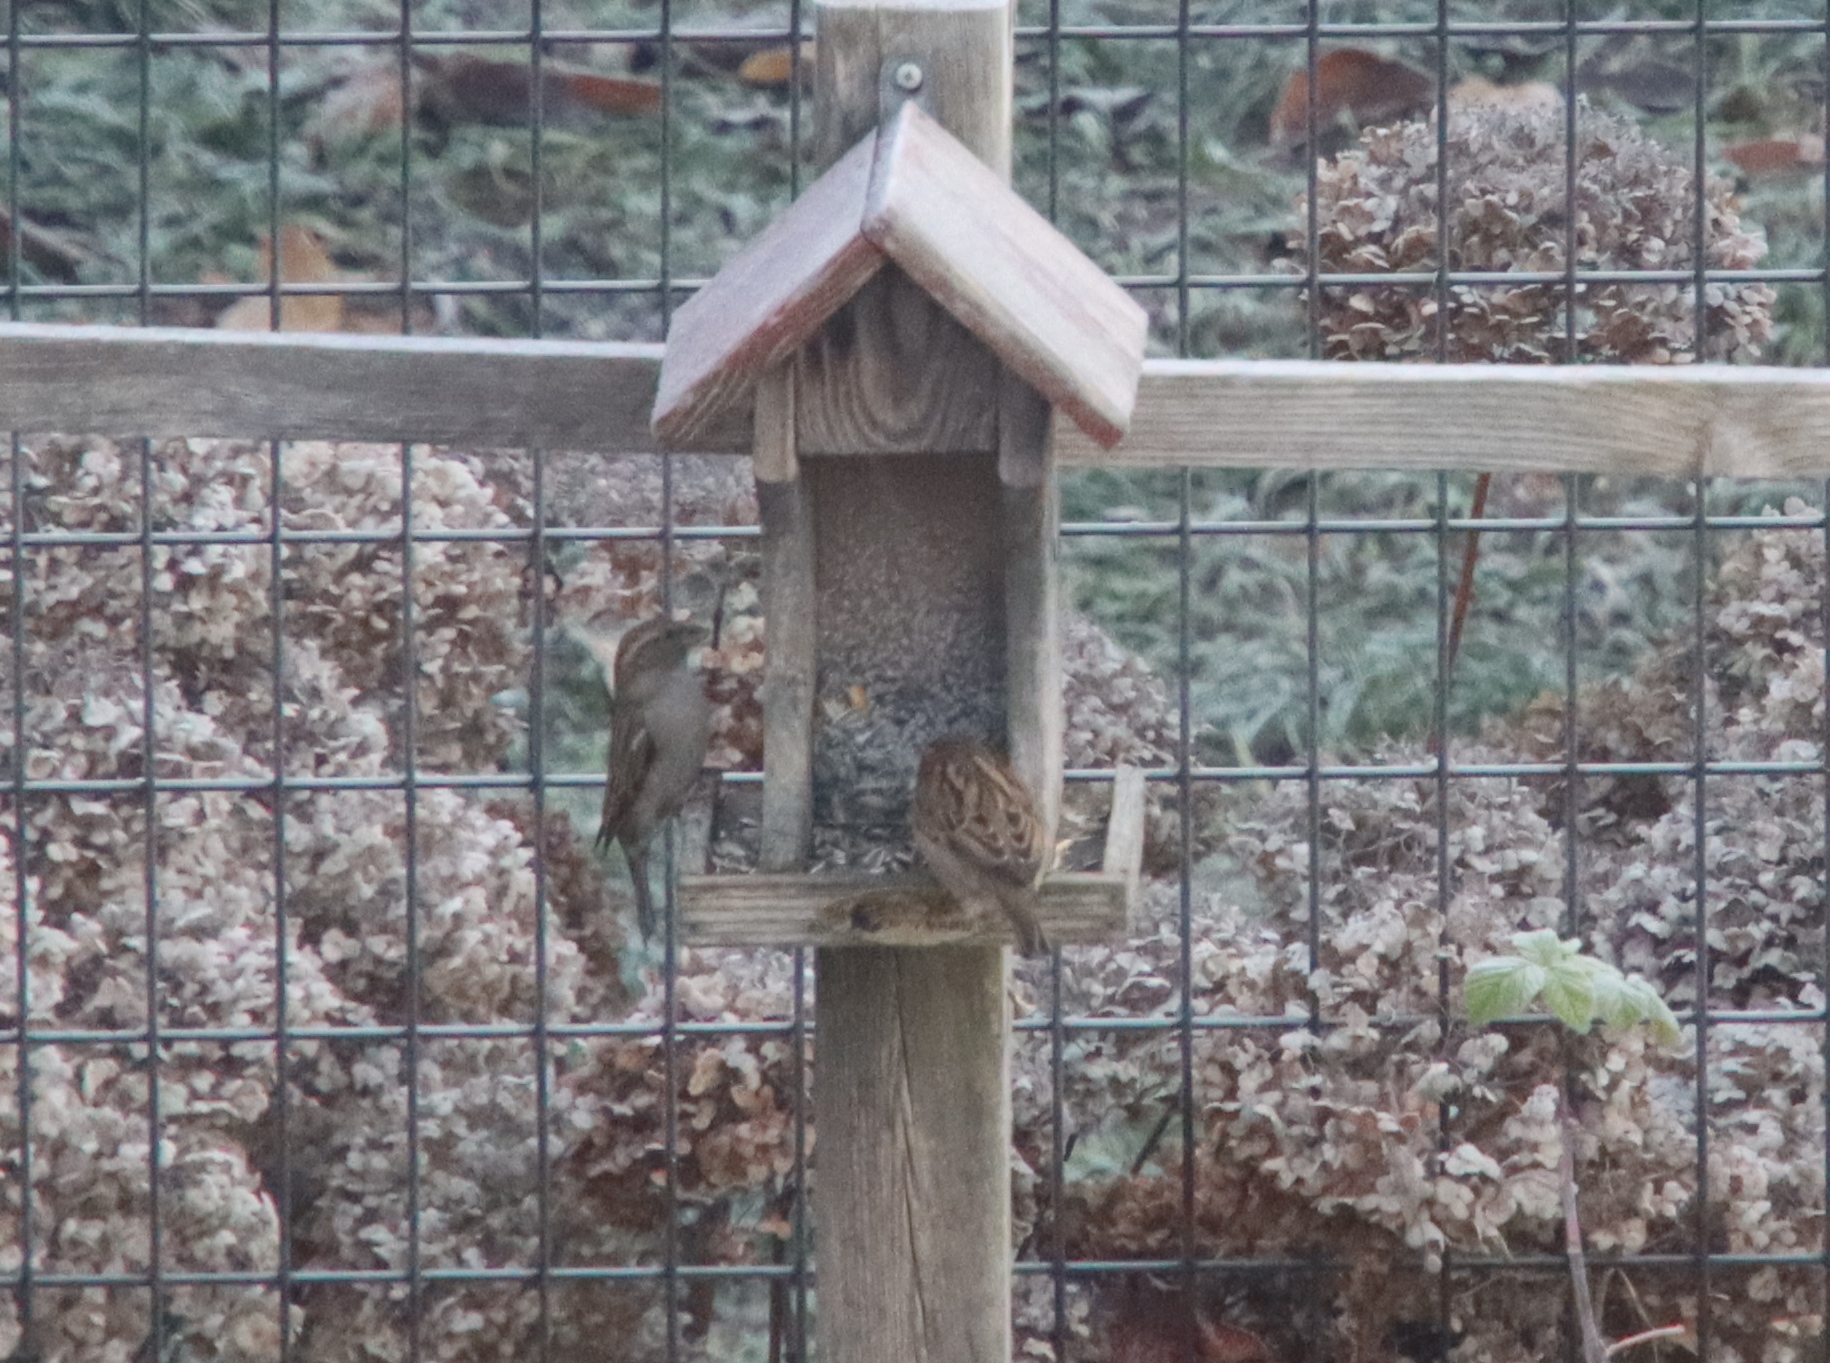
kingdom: Animalia
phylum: Chordata
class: Aves
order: Passeriformes
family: Passeridae
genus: Passer
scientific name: Passer domesticus
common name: House sparrow
